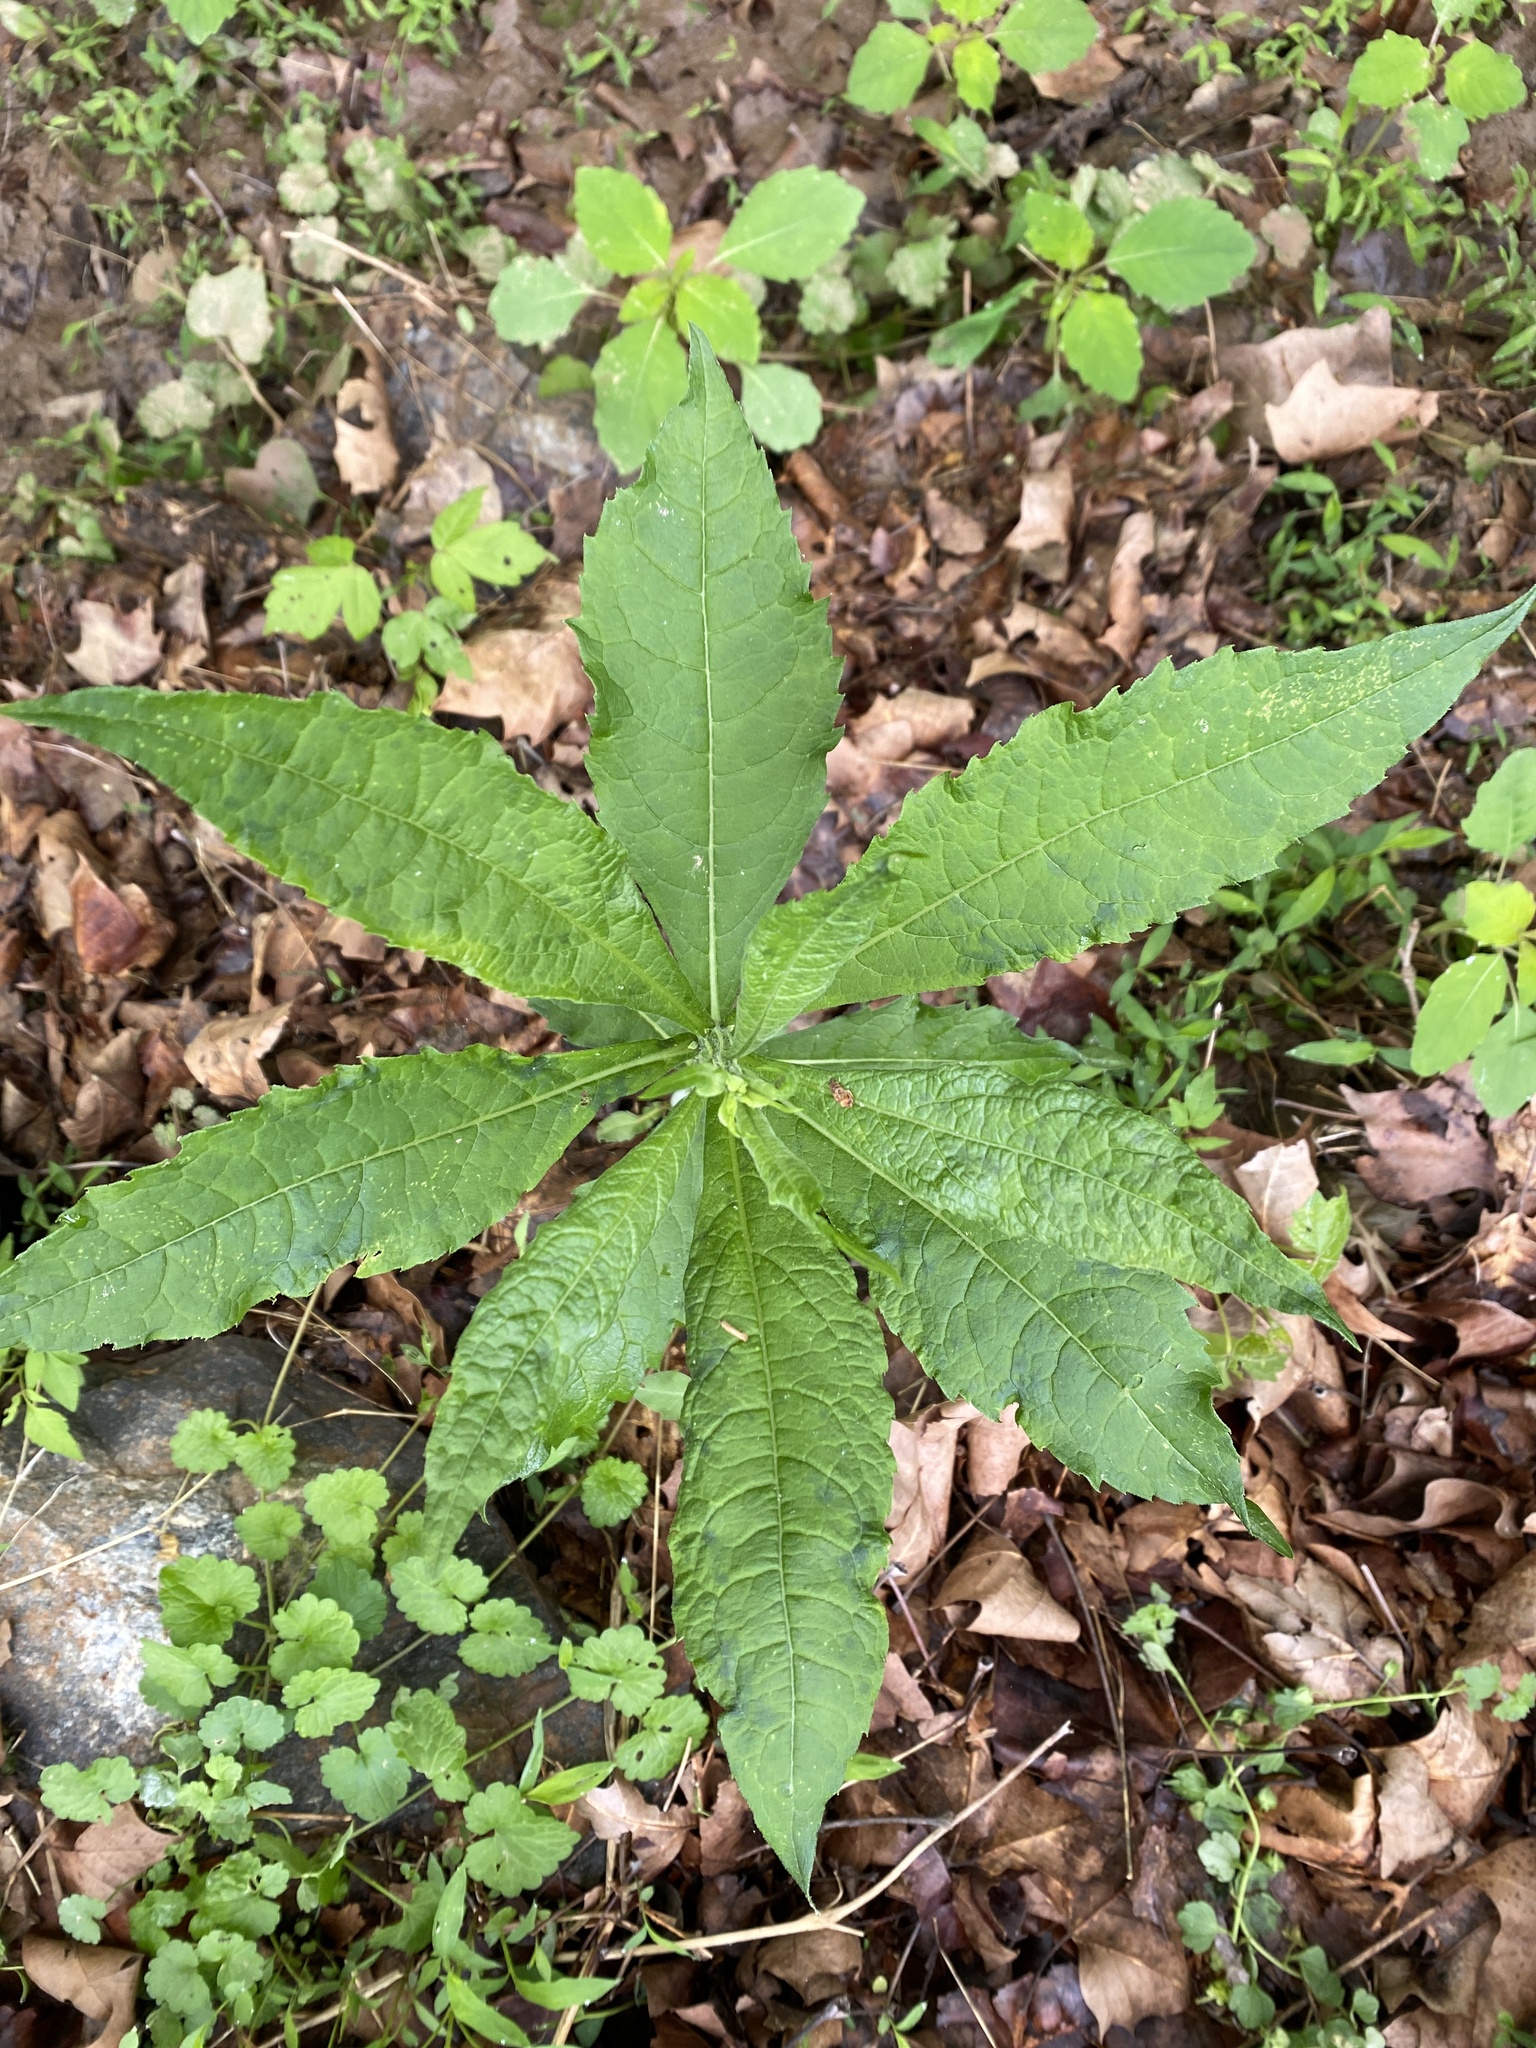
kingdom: Plantae
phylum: Tracheophyta
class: Magnoliopsida
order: Asterales
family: Asteraceae
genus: Verbesina
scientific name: Verbesina alternifolia
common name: Wingstem
